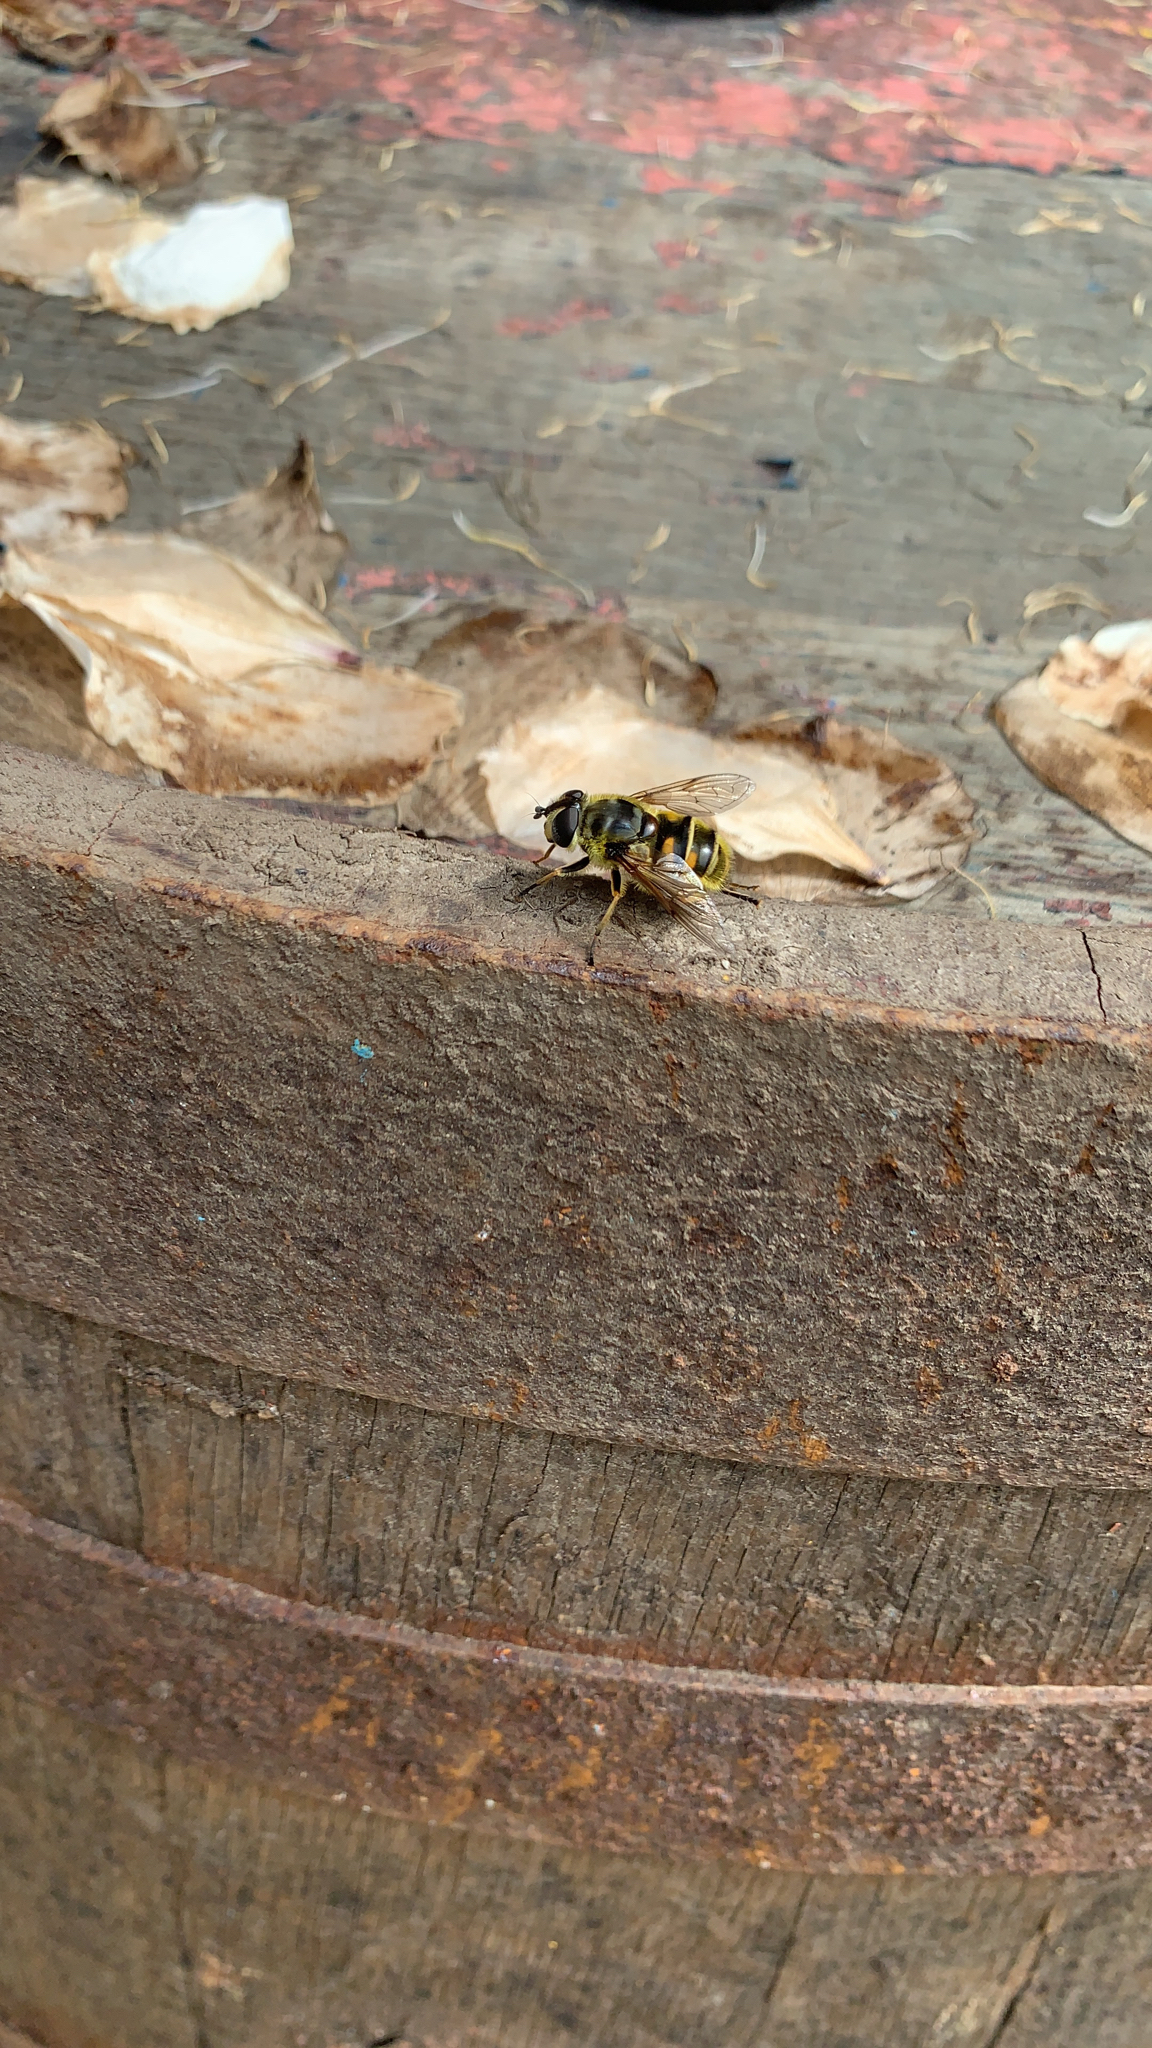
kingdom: Animalia
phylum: Arthropoda
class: Insecta
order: Diptera
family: Syrphidae
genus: Myathropa
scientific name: Myathropa florea
